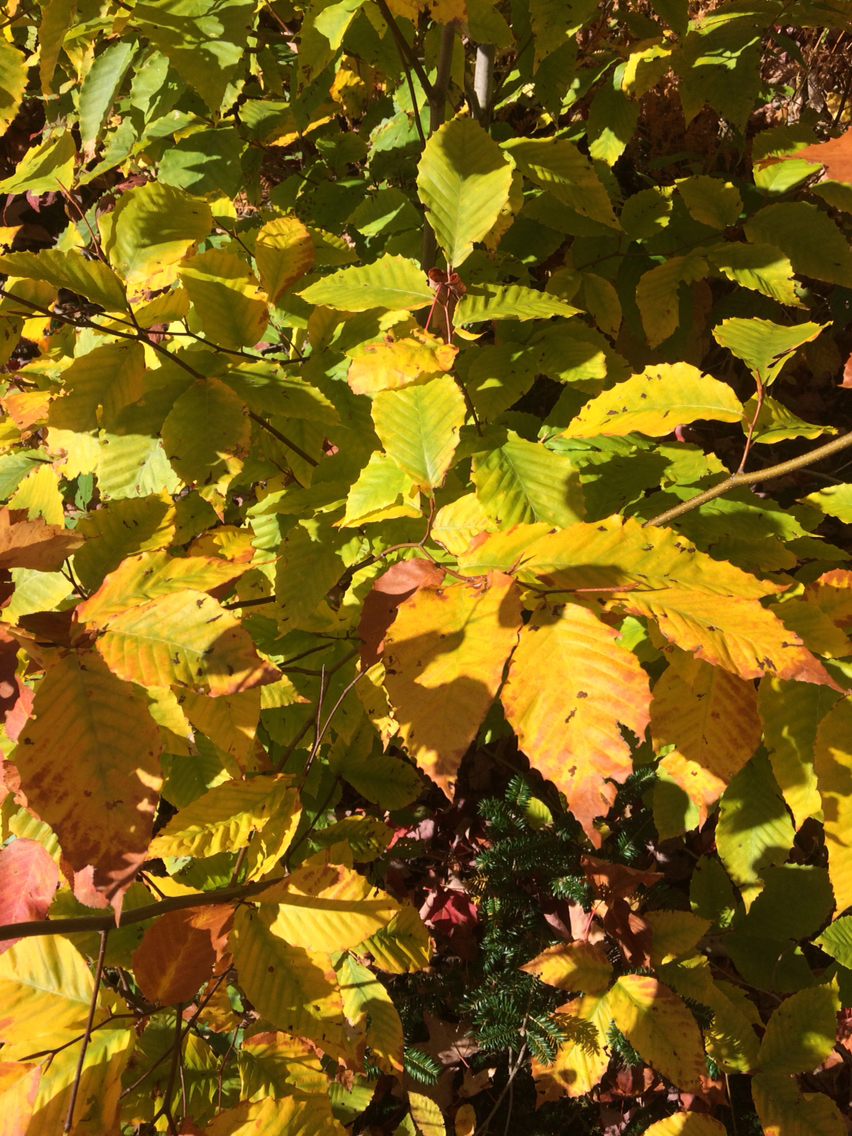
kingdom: Plantae
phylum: Tracheophyta
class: Magnoliopsida
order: Fagales
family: Fagaceae
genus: Fagus
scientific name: Fagus grandifolia
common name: American beech
